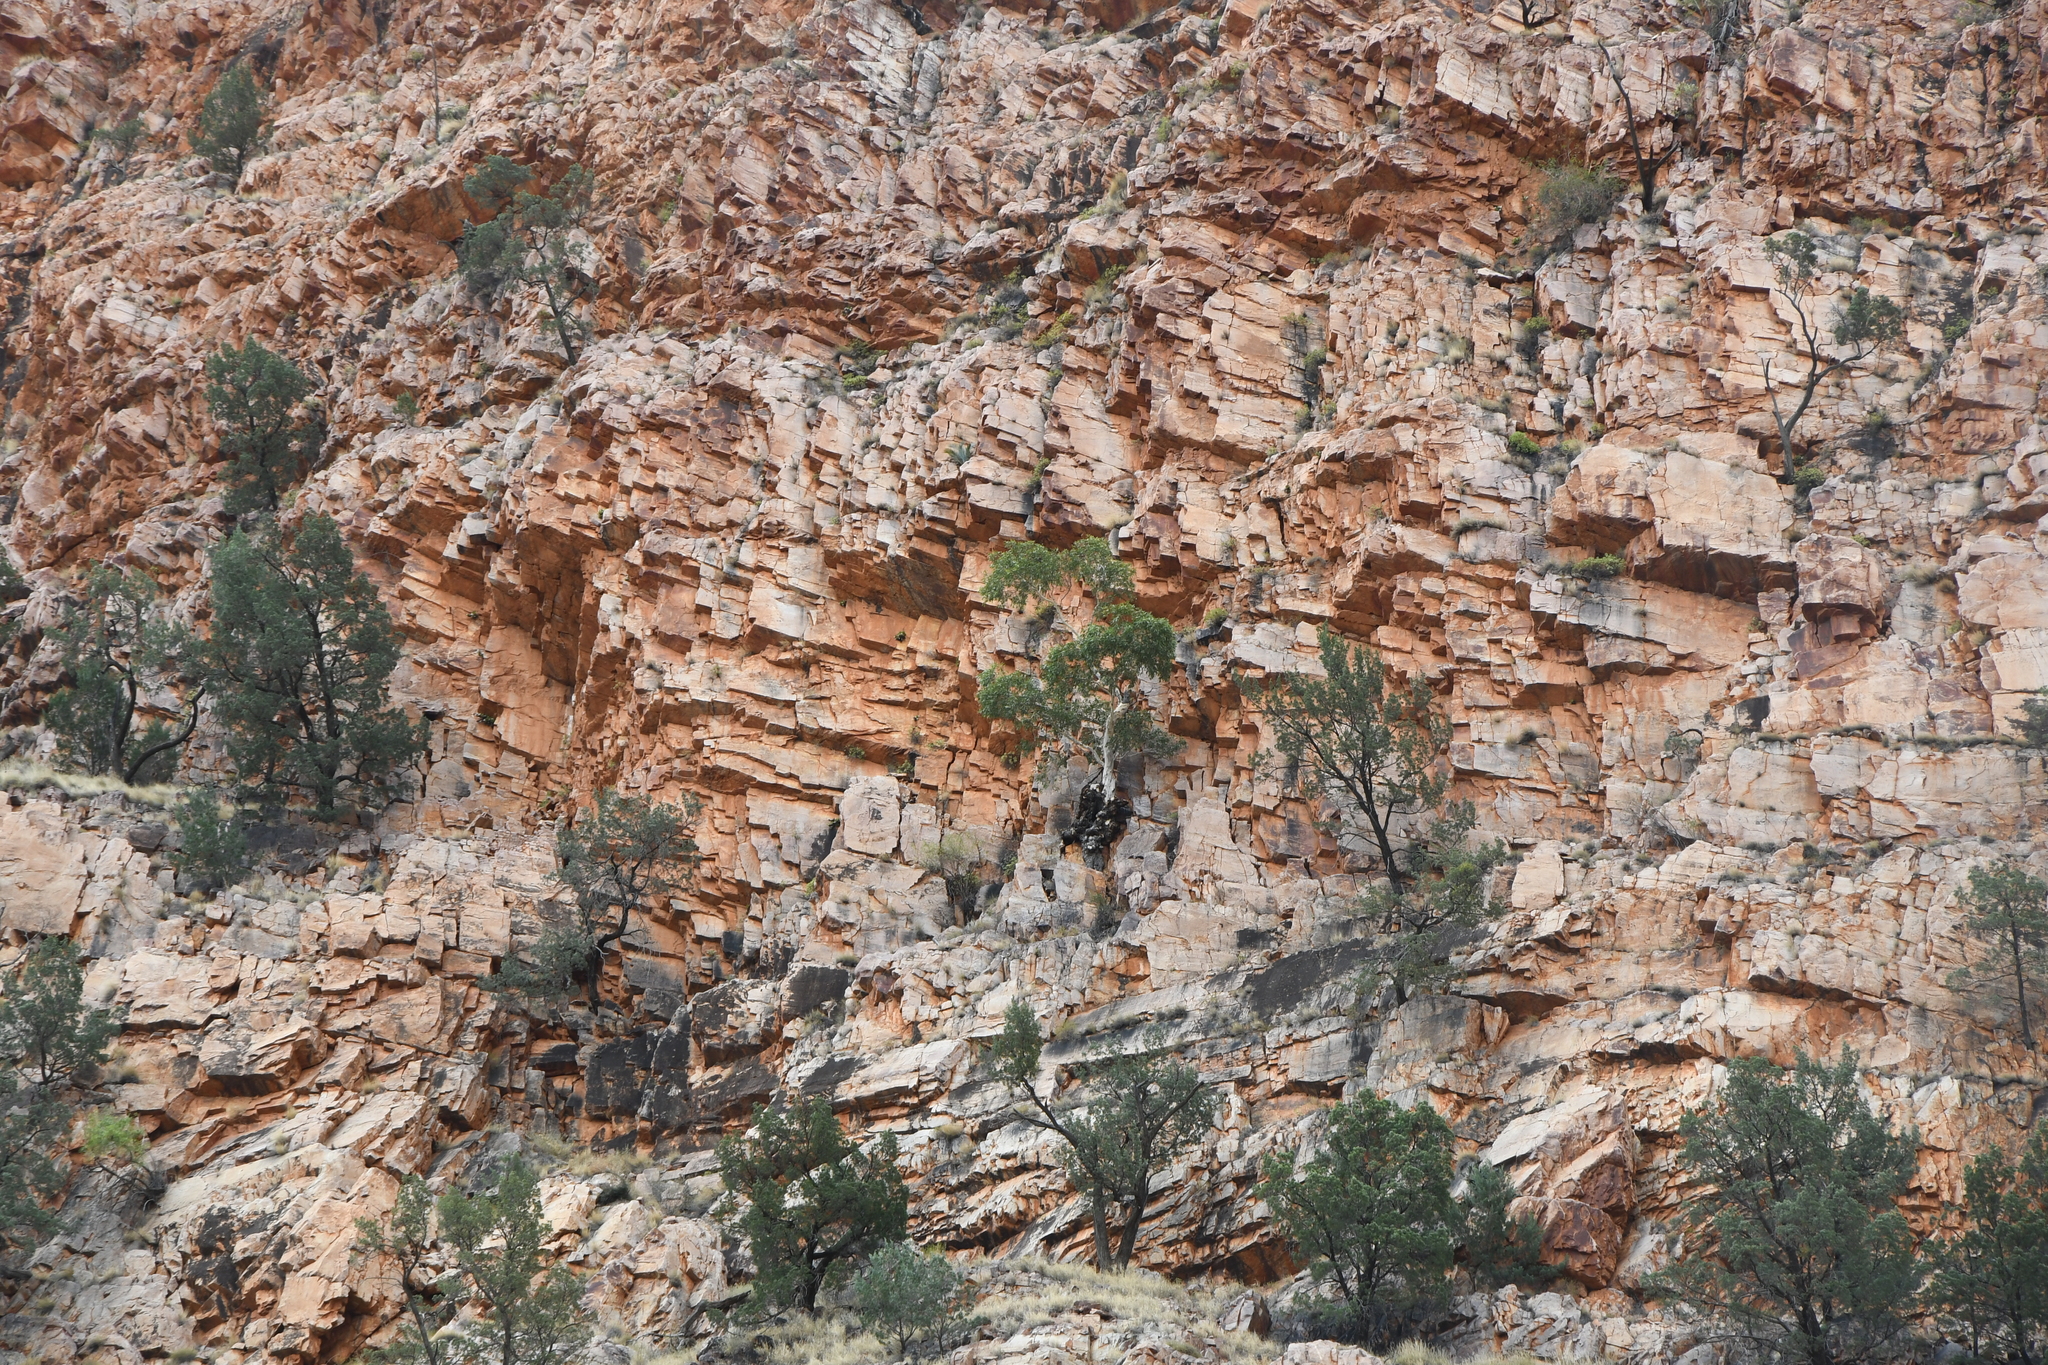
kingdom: Plantae
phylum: Tracheophyta
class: Magnoliopsida
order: Myrtales
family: Myrtaceae
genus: Corymbia
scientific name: Corymbia aparrerinja
